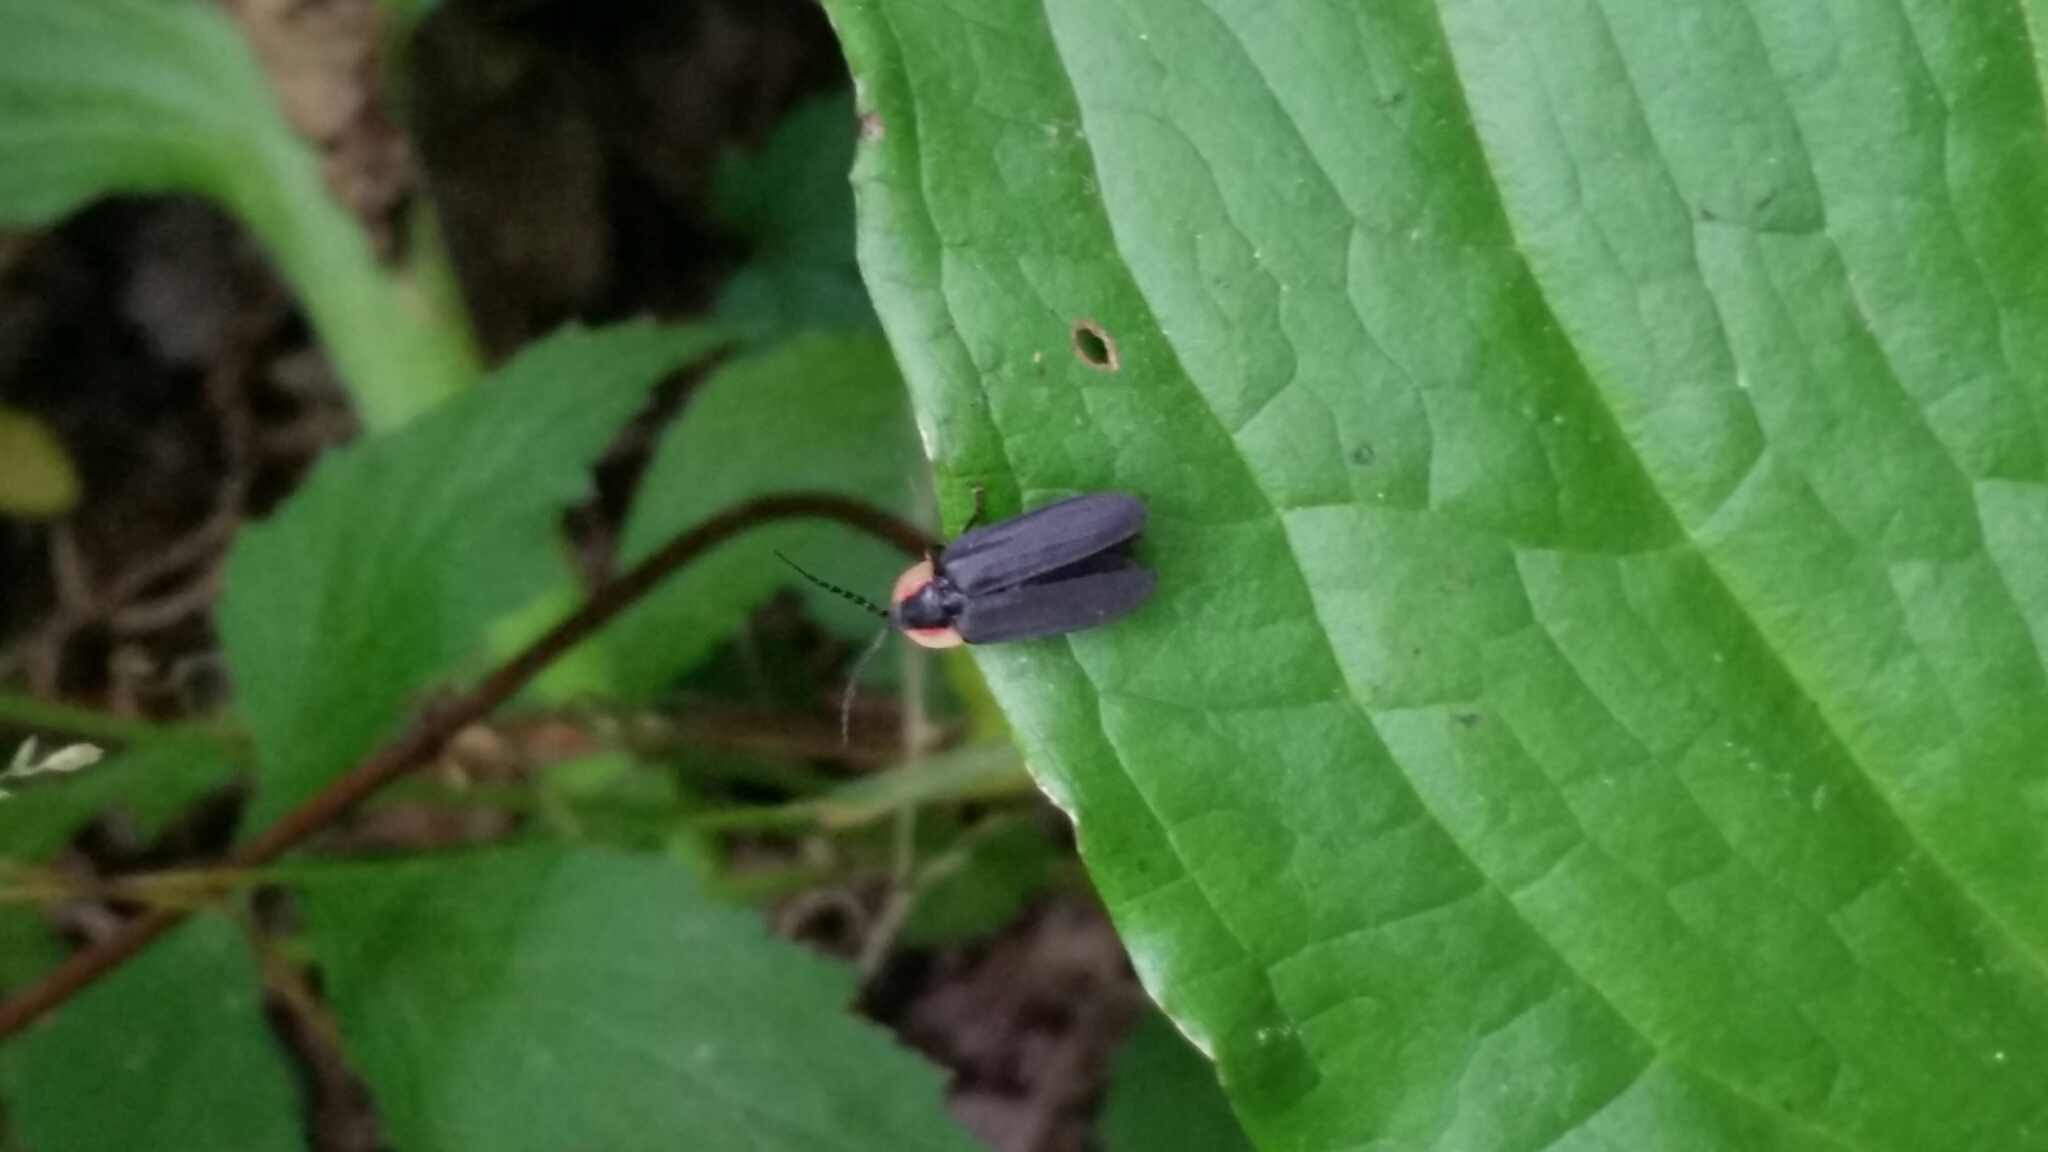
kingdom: Animalia
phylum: Arthropoda
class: Insecta
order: Coleoptera
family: Lampyridae
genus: Lucidota
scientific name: Lucidota atra
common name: Black firefly
